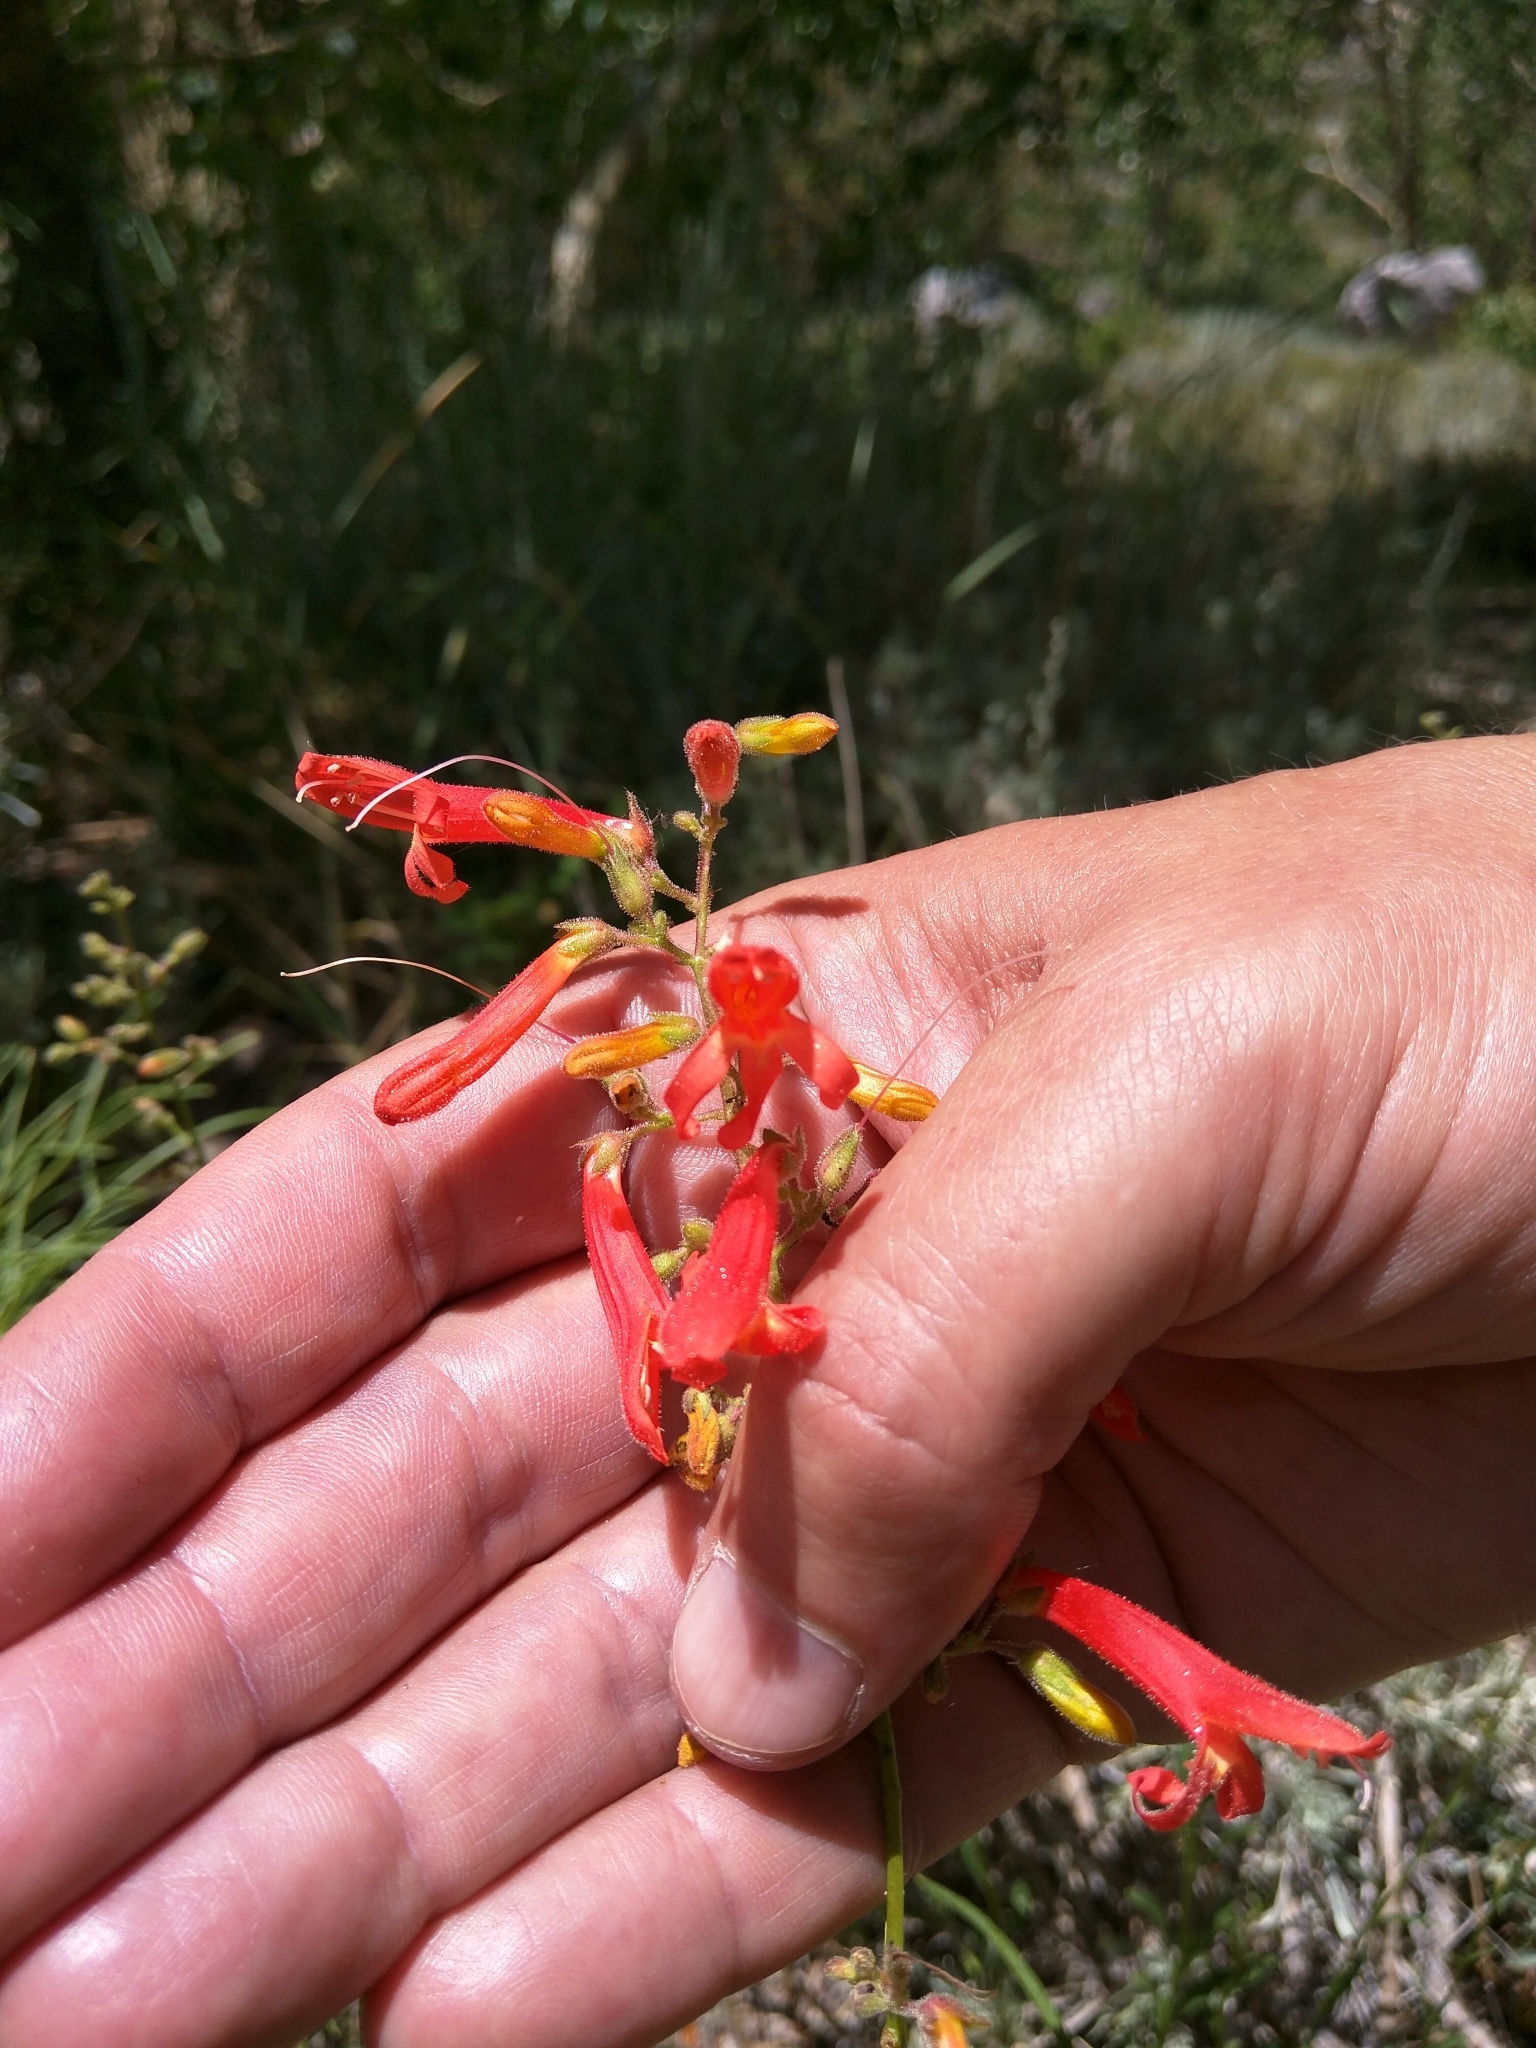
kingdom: Plantae
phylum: Tracheophyta
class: Magnoliopsida
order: Lamiales
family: Plantaginaceae
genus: Penstemon
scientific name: Penstemon rostriflorus
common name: Bridges's penstemon
